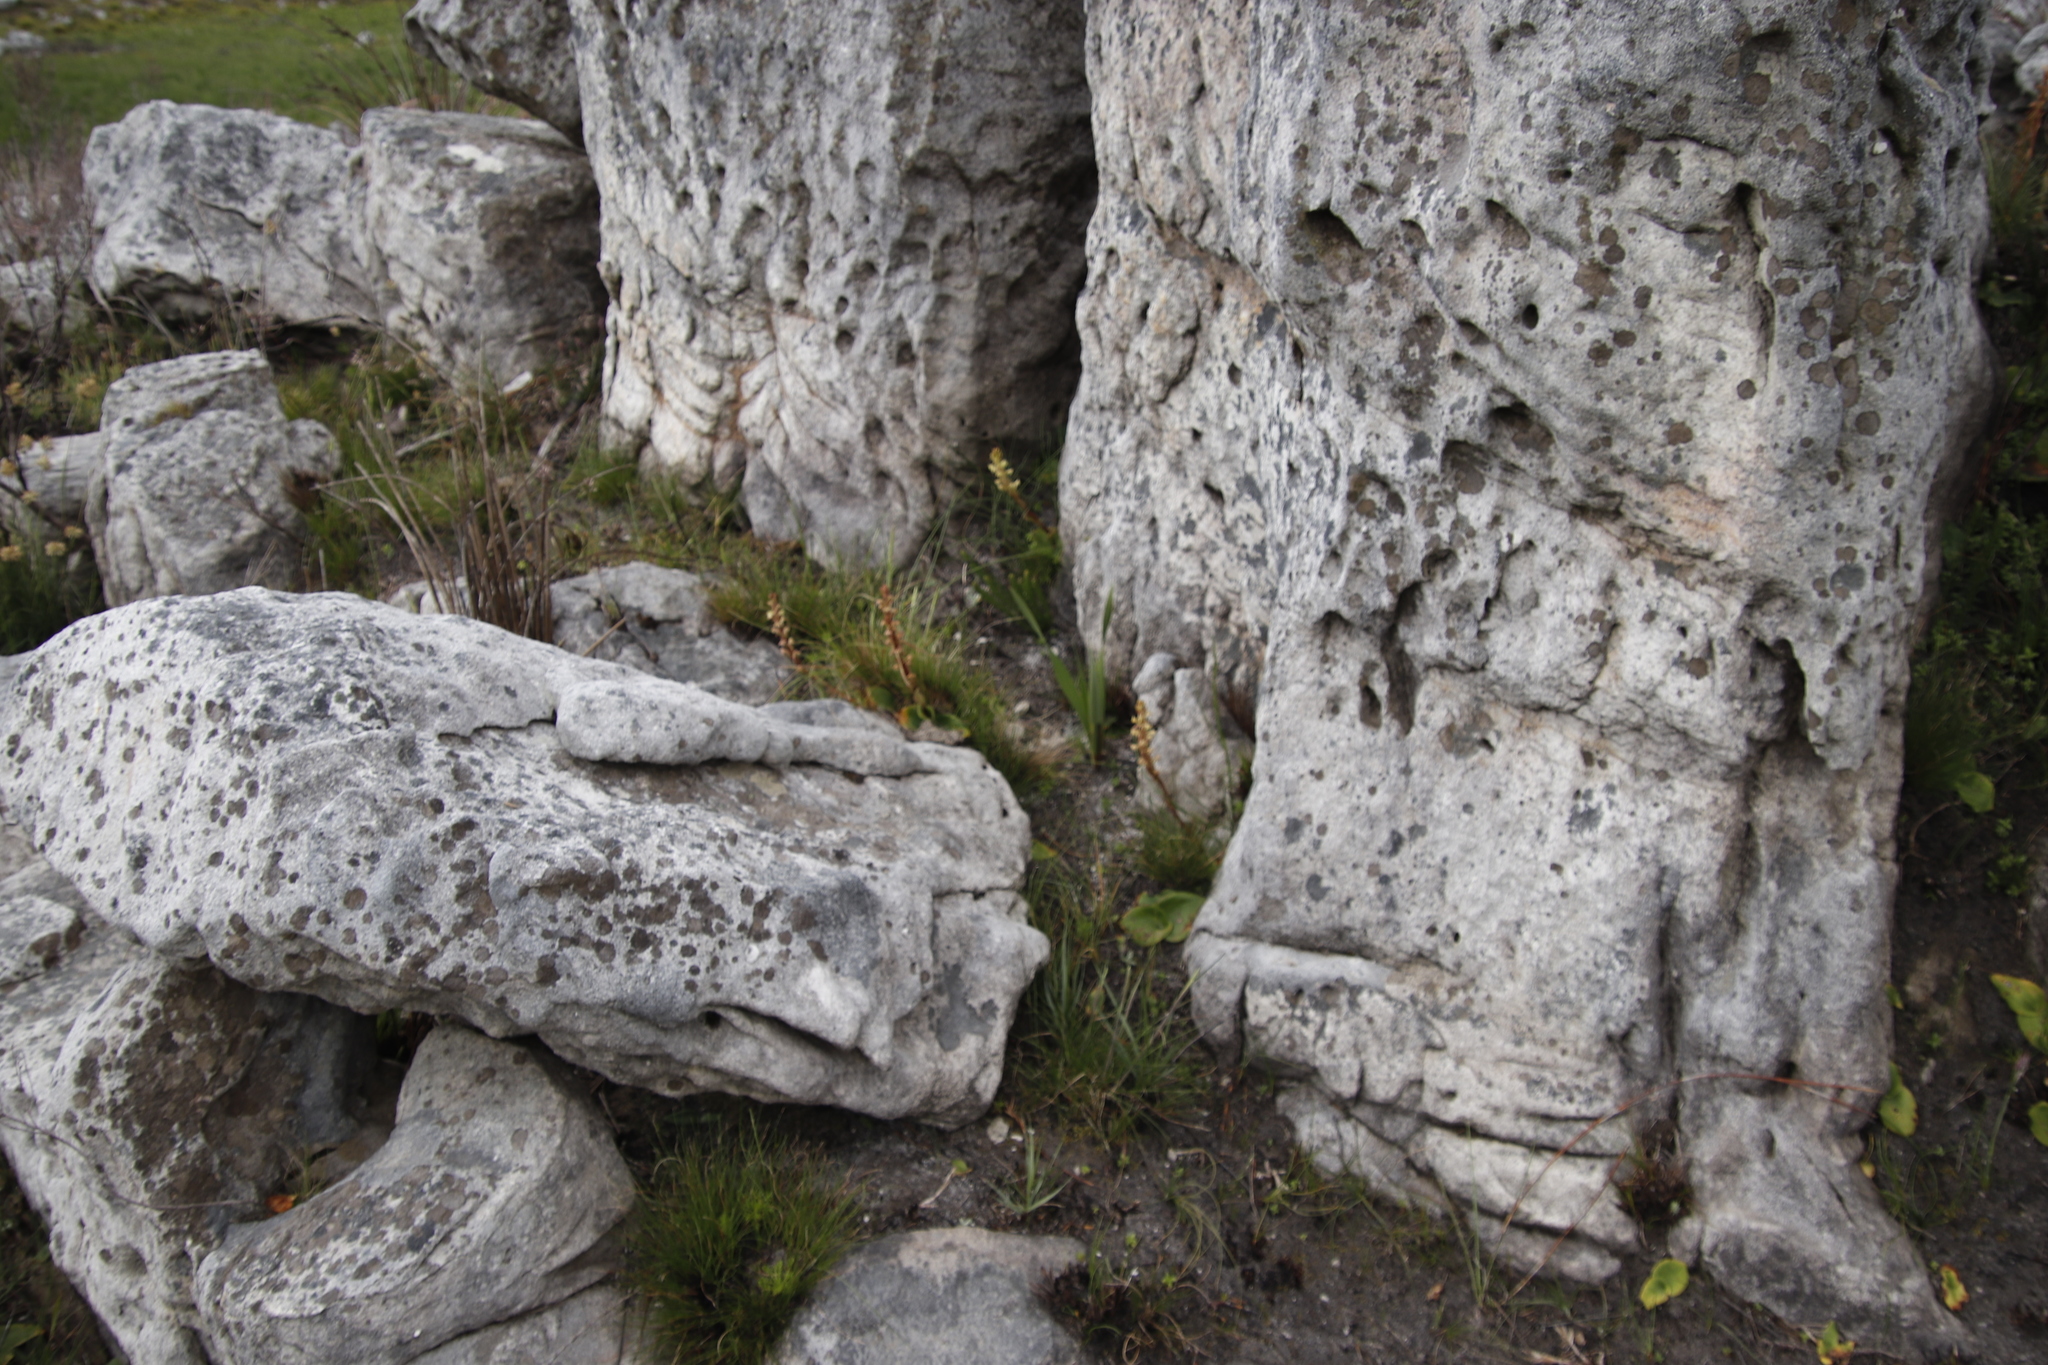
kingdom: Plantae
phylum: Tracheophyta
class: Liliopsida
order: Asparagales
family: Orchidaceae
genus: Satyrium
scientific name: Satyrium situsanguinum
